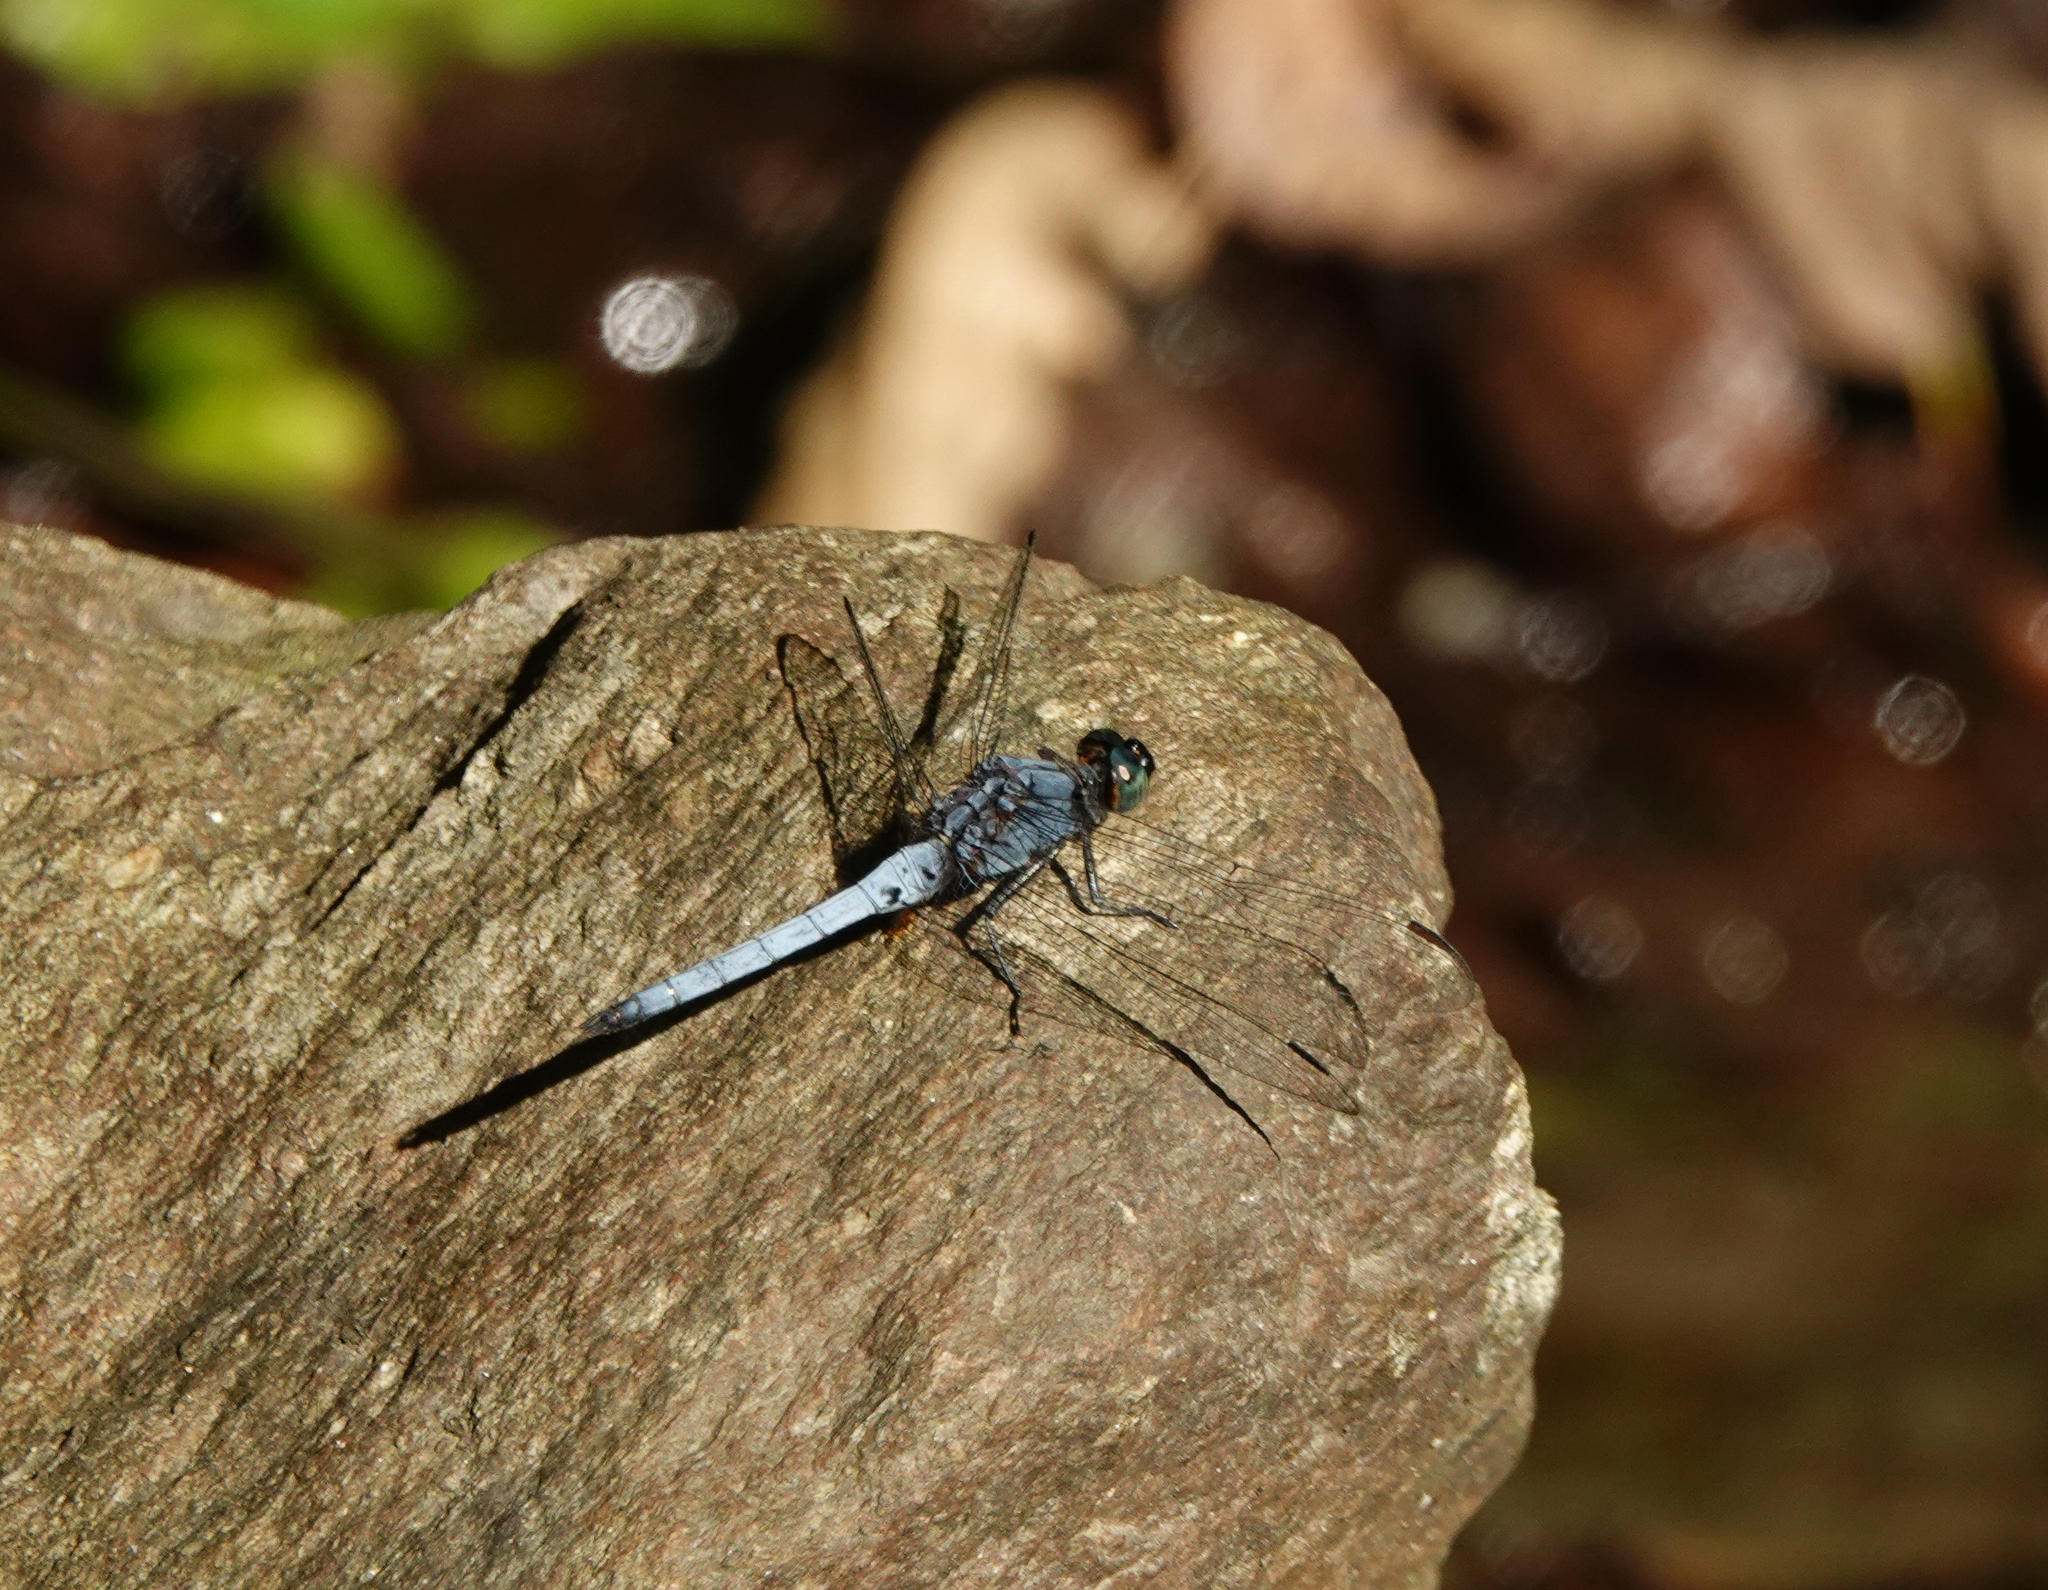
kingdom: Animalia
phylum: Arthropoda
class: Insecta
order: Odonata
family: Libellulidae
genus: Orthetrum
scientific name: Orthetrum glaucum
